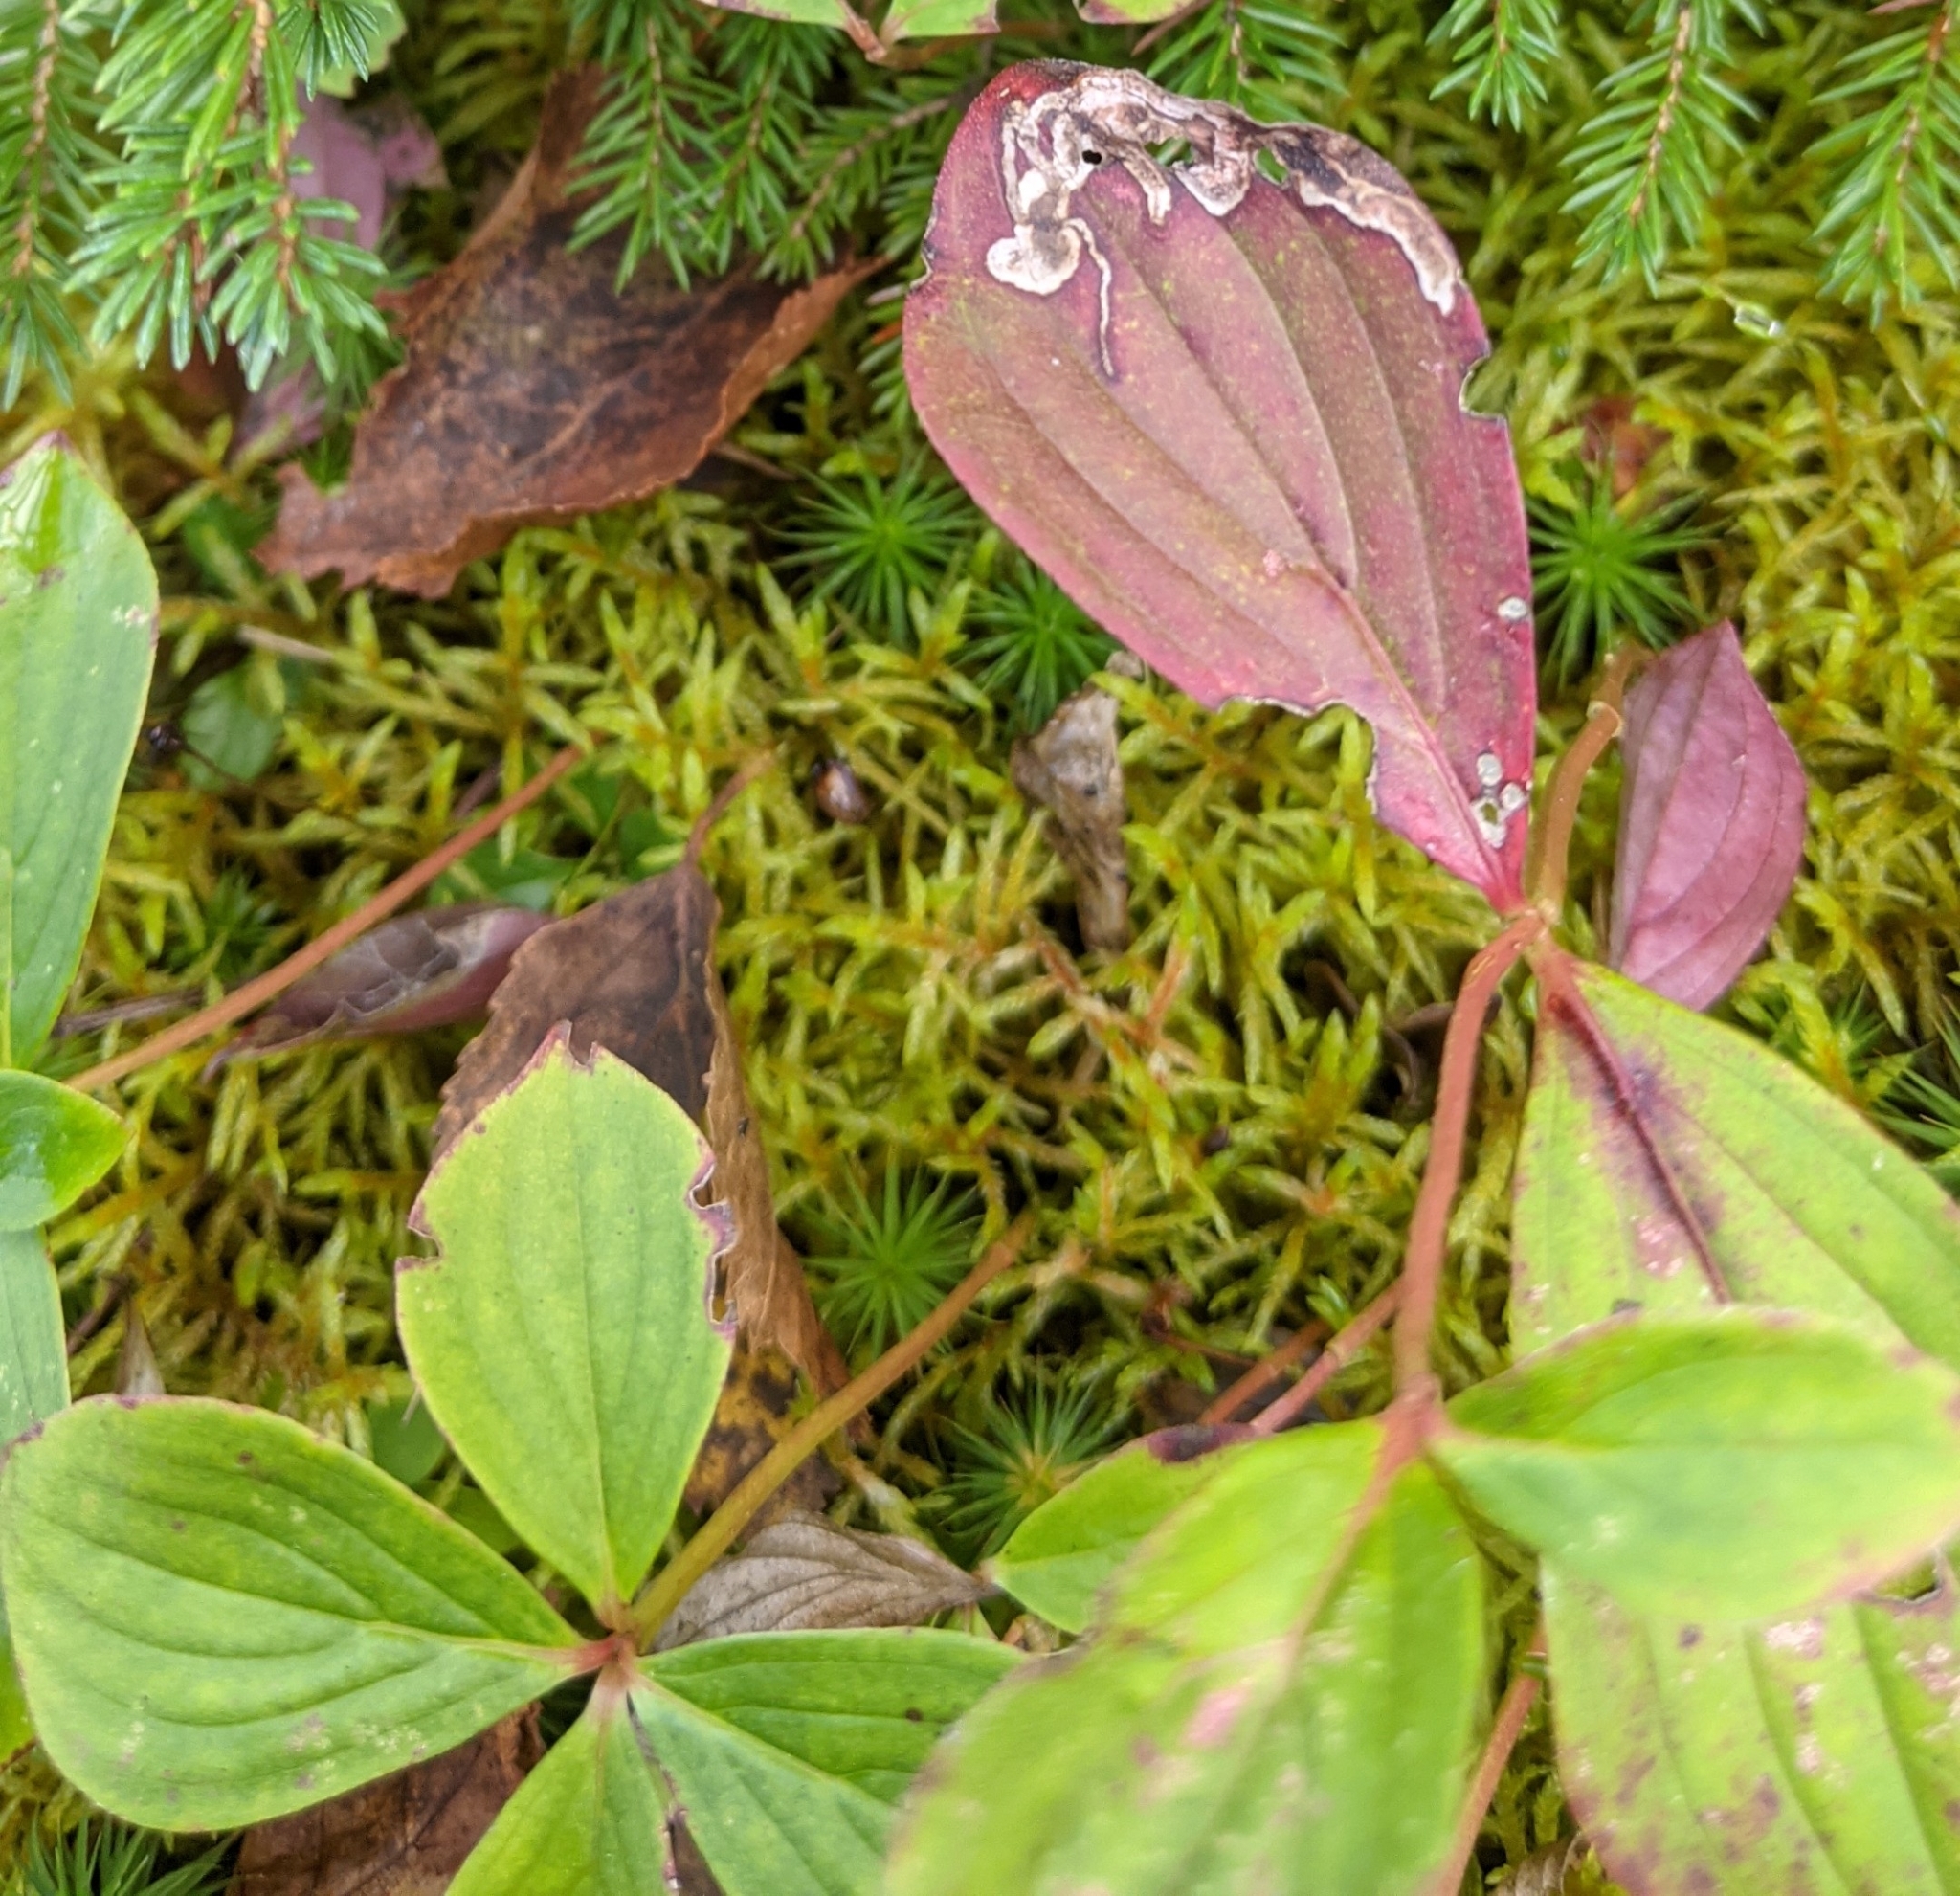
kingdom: Plantae
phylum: Tracheophyta
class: Magnoliopsida
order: Cornales
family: Cornaceae
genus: Cornus
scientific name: Cornus canadensis
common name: Creeping dogwood
